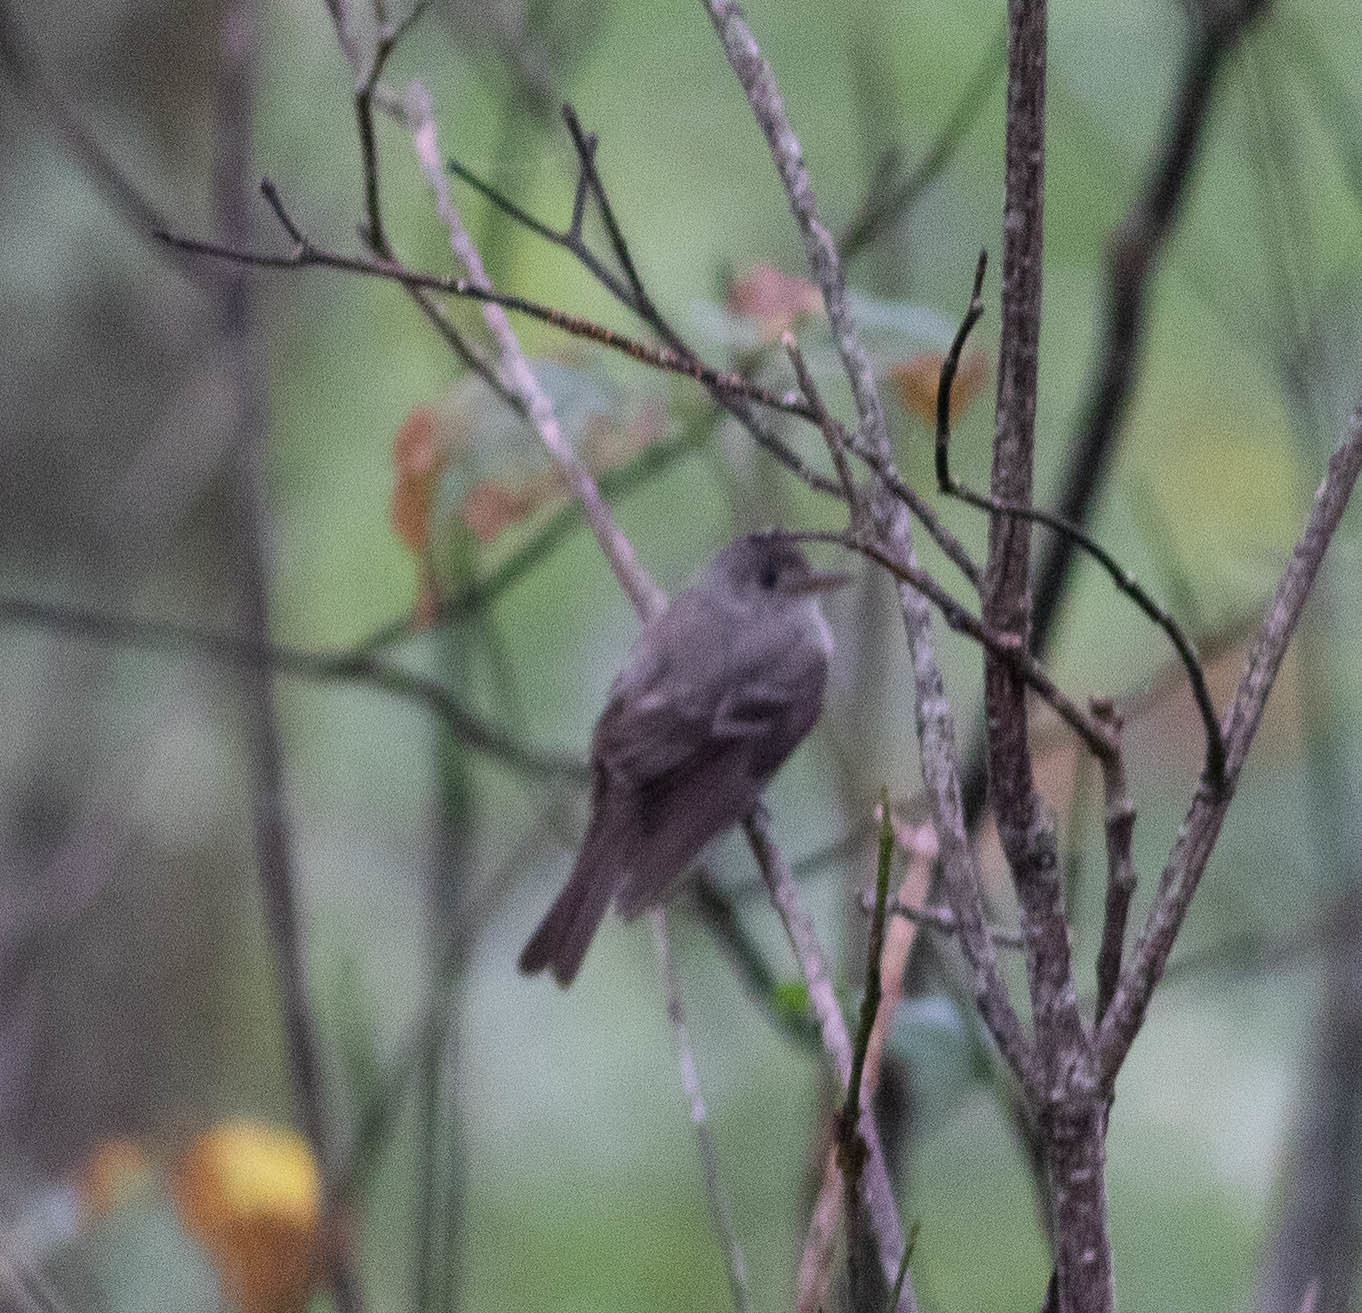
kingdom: Animalia
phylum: Chordata
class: Aves
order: Passeriformes
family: Tyrannidae
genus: Contopus
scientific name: Contopus virens
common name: Eastern wood-pewee
